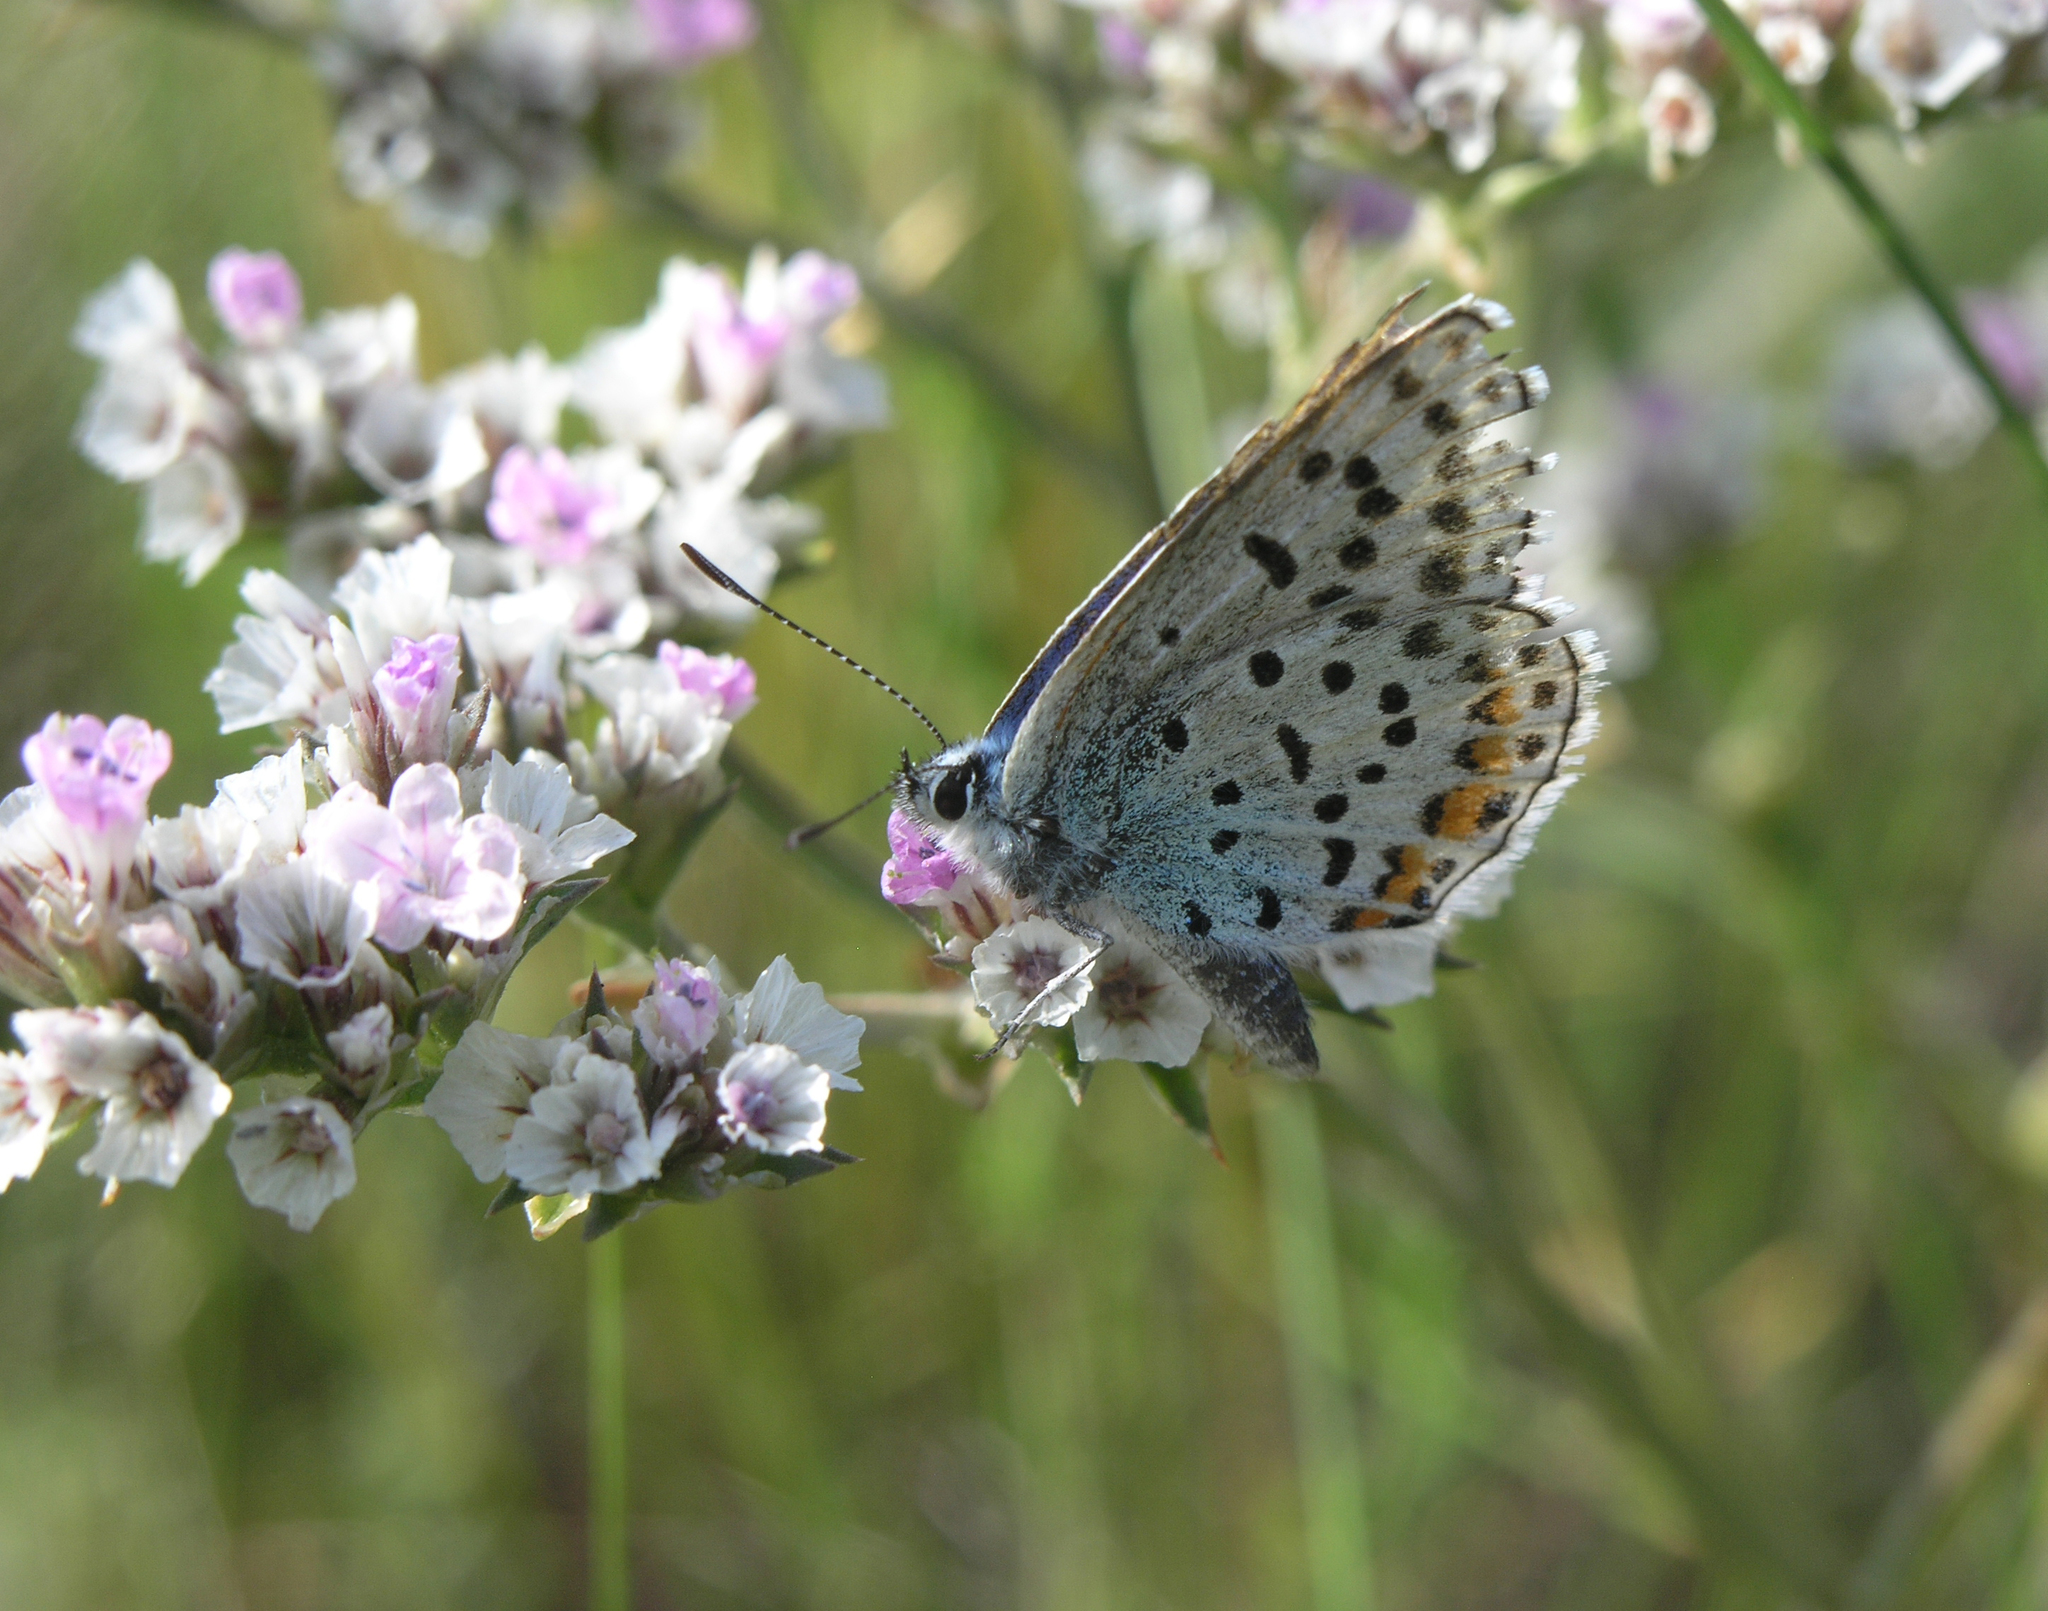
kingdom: Animalia
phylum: Arthropoda
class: Insecta
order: Lepidoptera
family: Lycaenidae
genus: Glabroculus
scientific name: Glabroculus cyane
